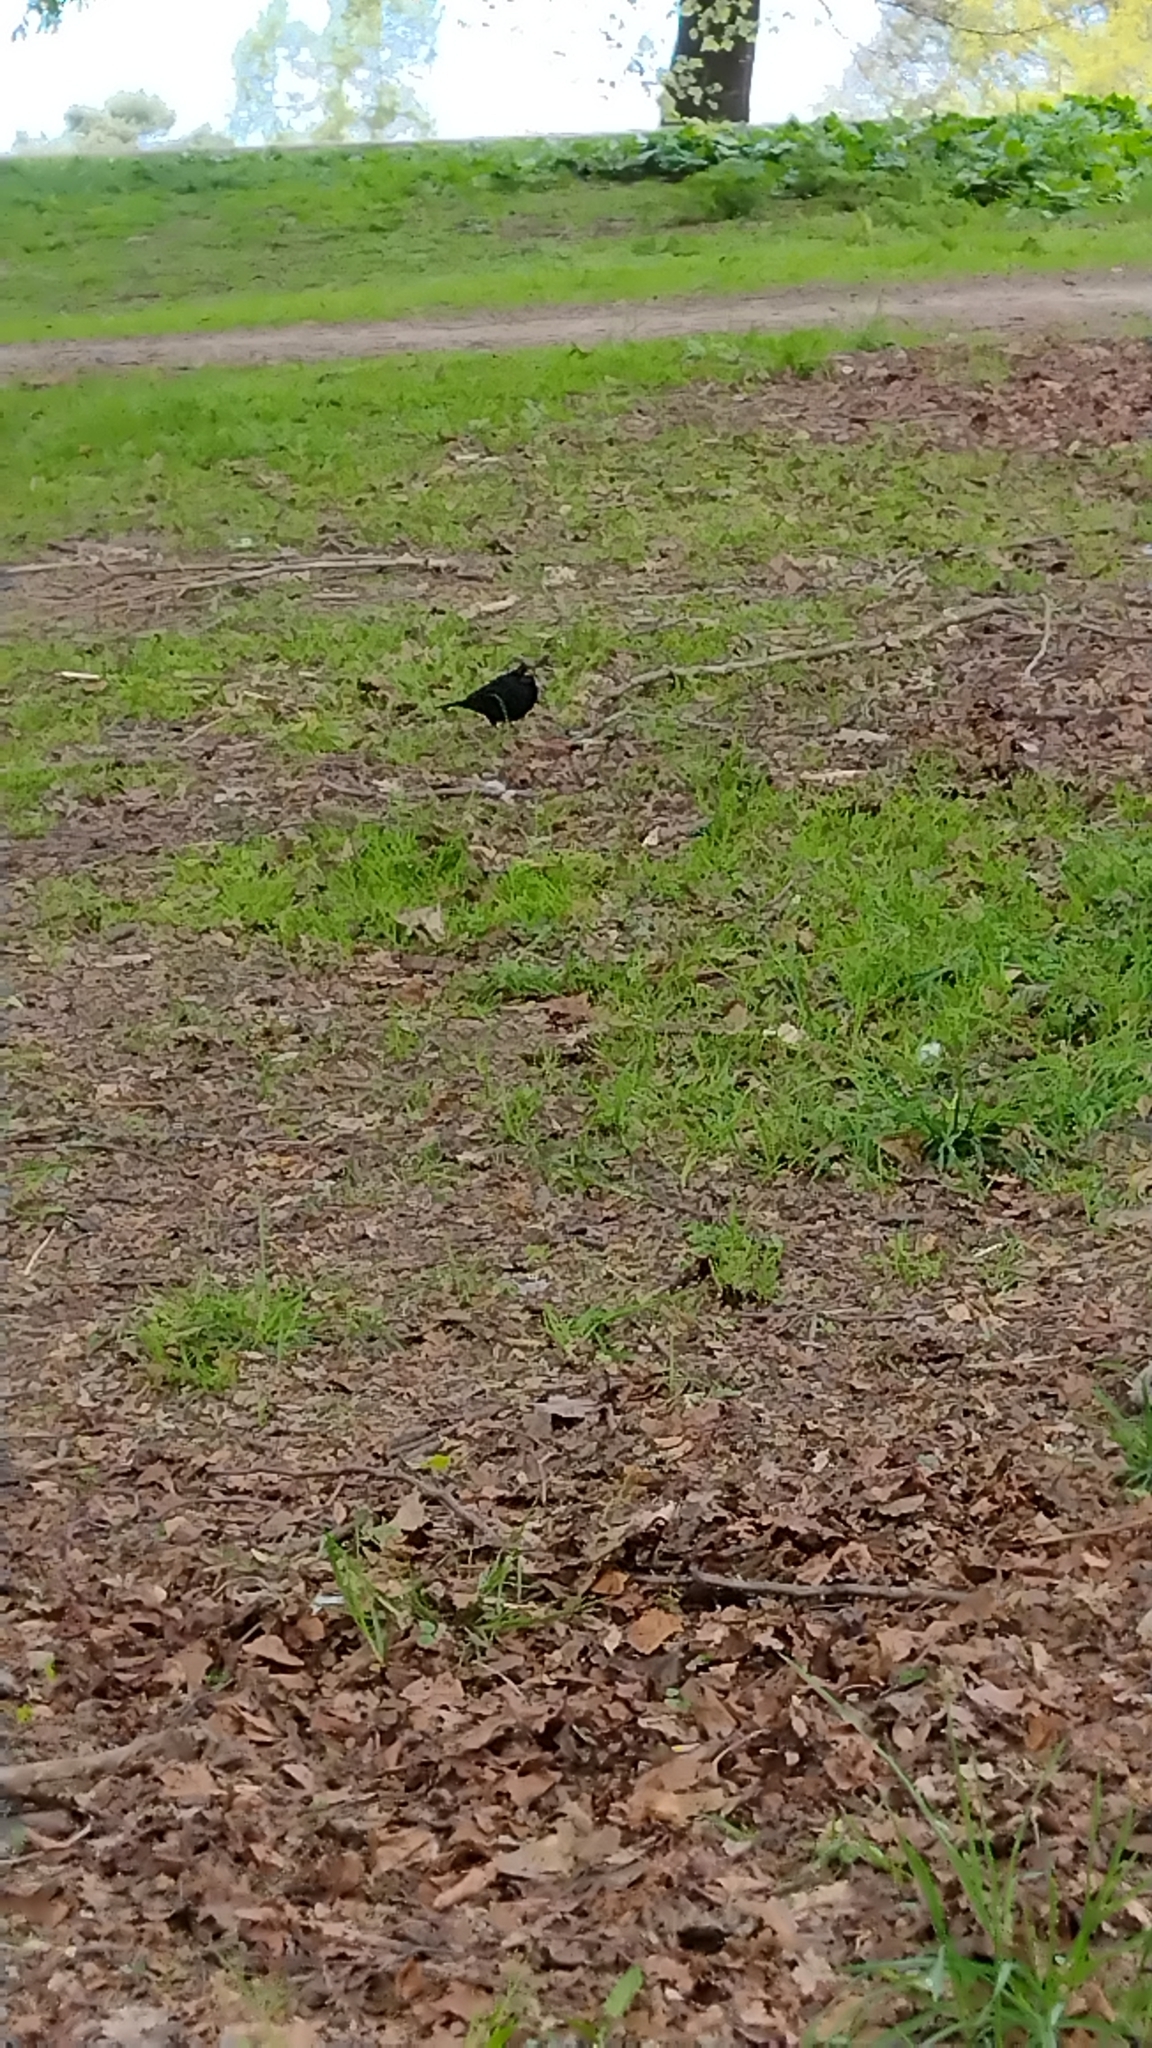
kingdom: Animalia
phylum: Chordata
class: Aves
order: Passeriformes
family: Turdidae
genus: Turdus
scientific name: Turdus merula
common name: Common blackbird
